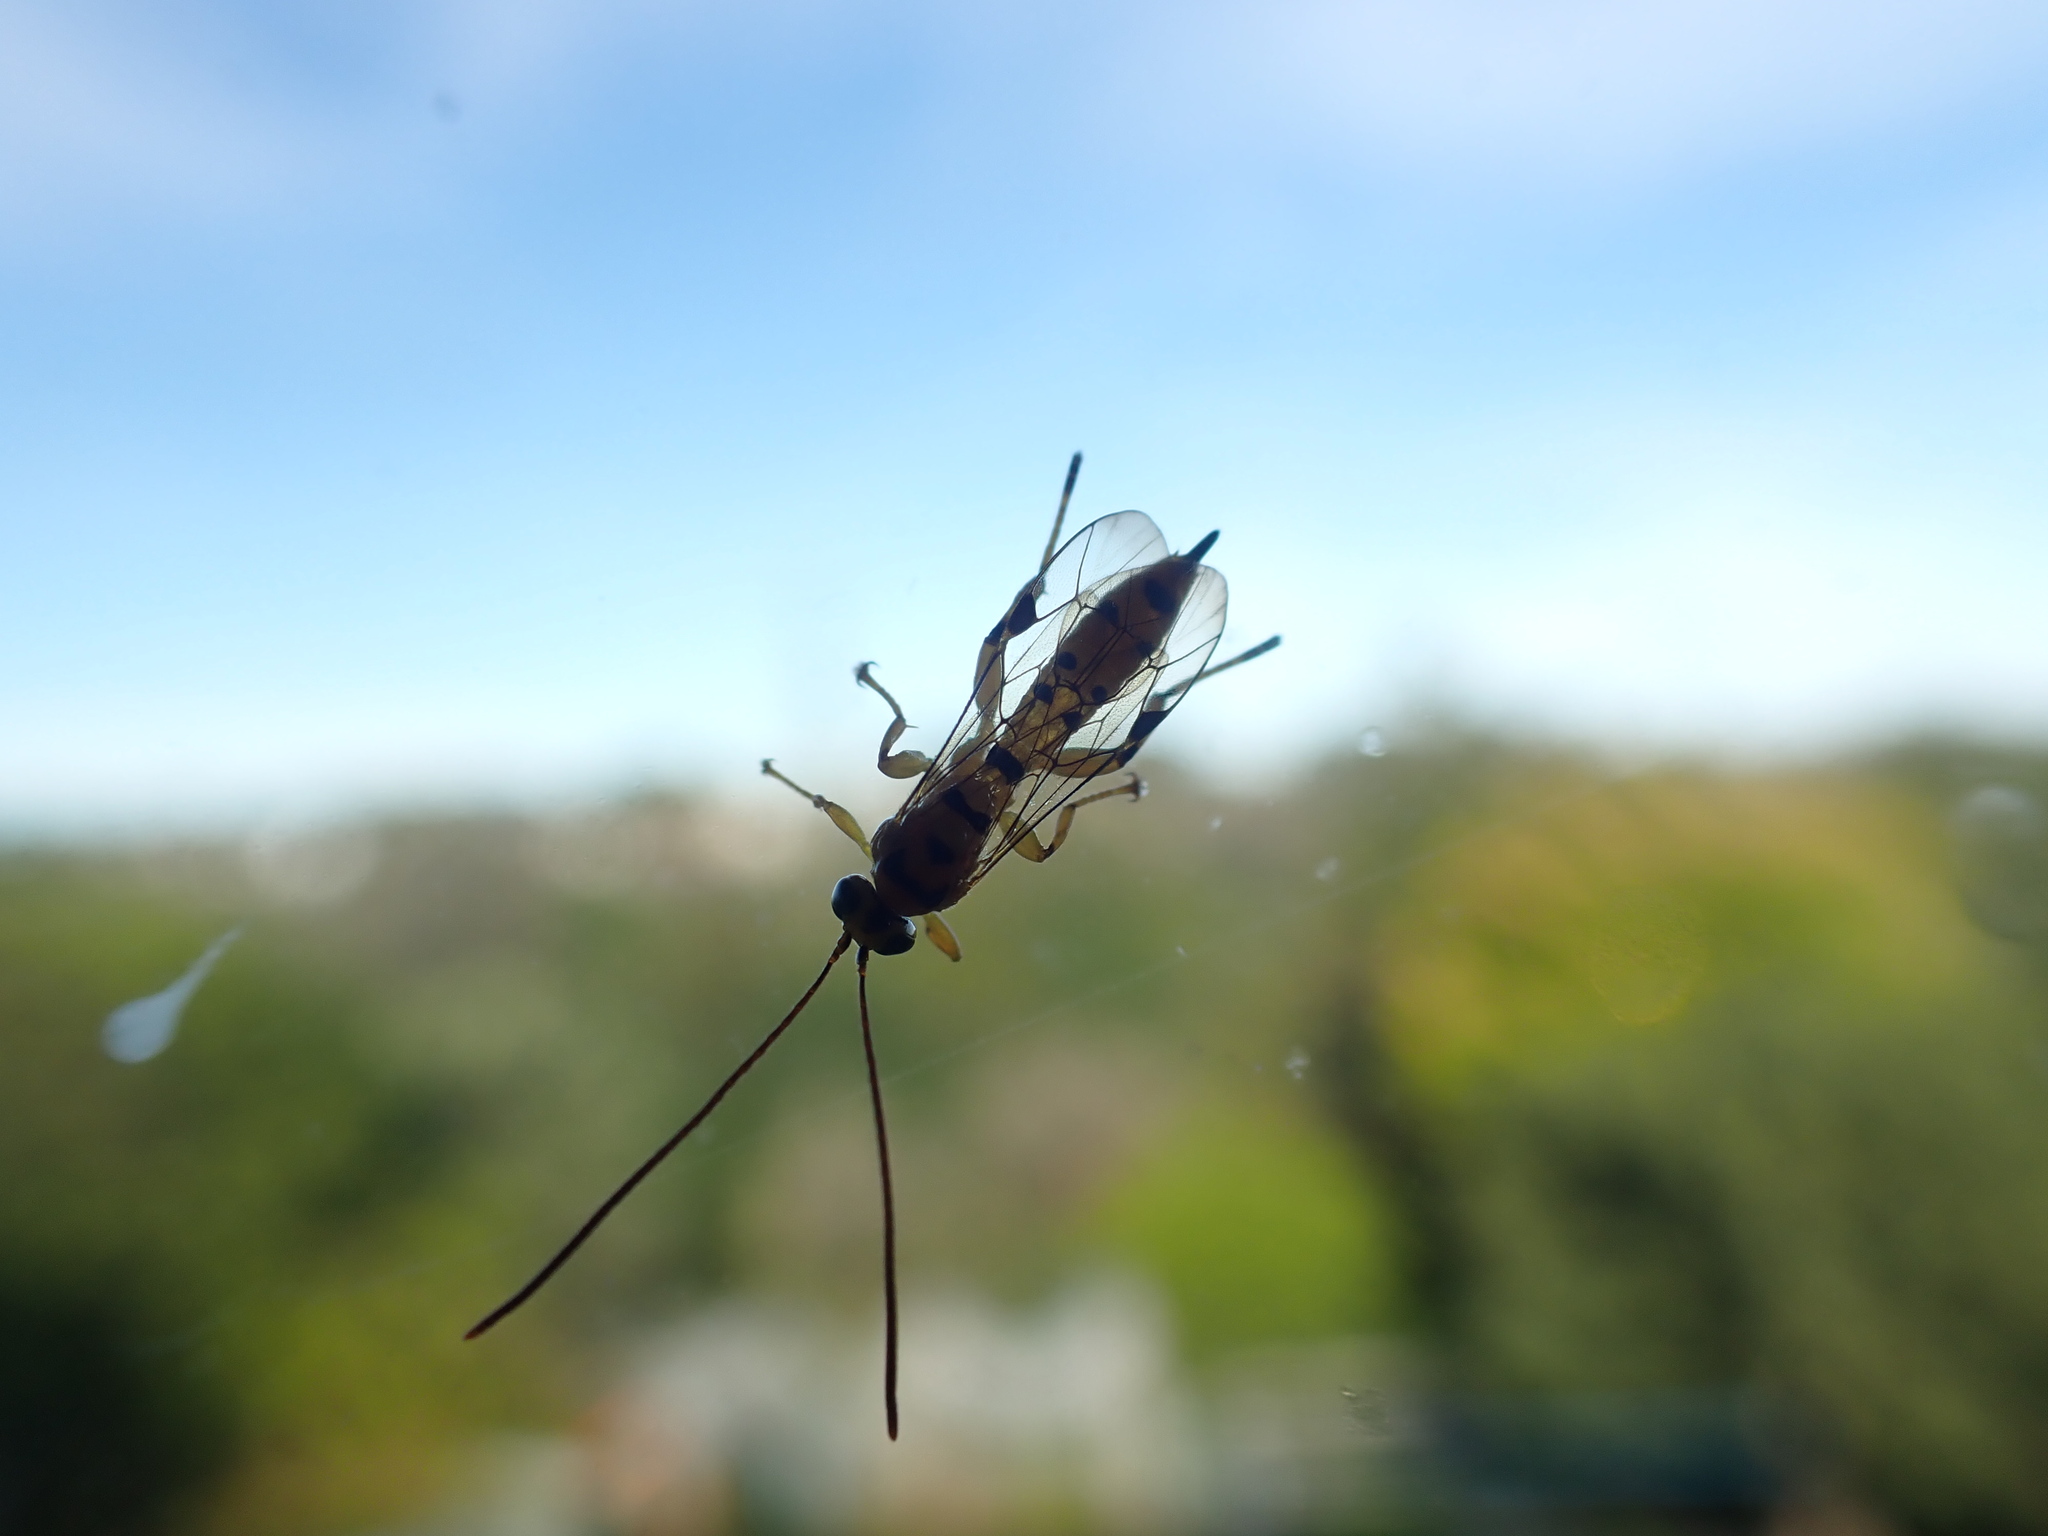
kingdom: Animalia
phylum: Arthropoda
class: Insecta
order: Hymenoptera
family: Ichneumonidae
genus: Xanthopimpla
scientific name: Xanthopimpla rhopaloceros
